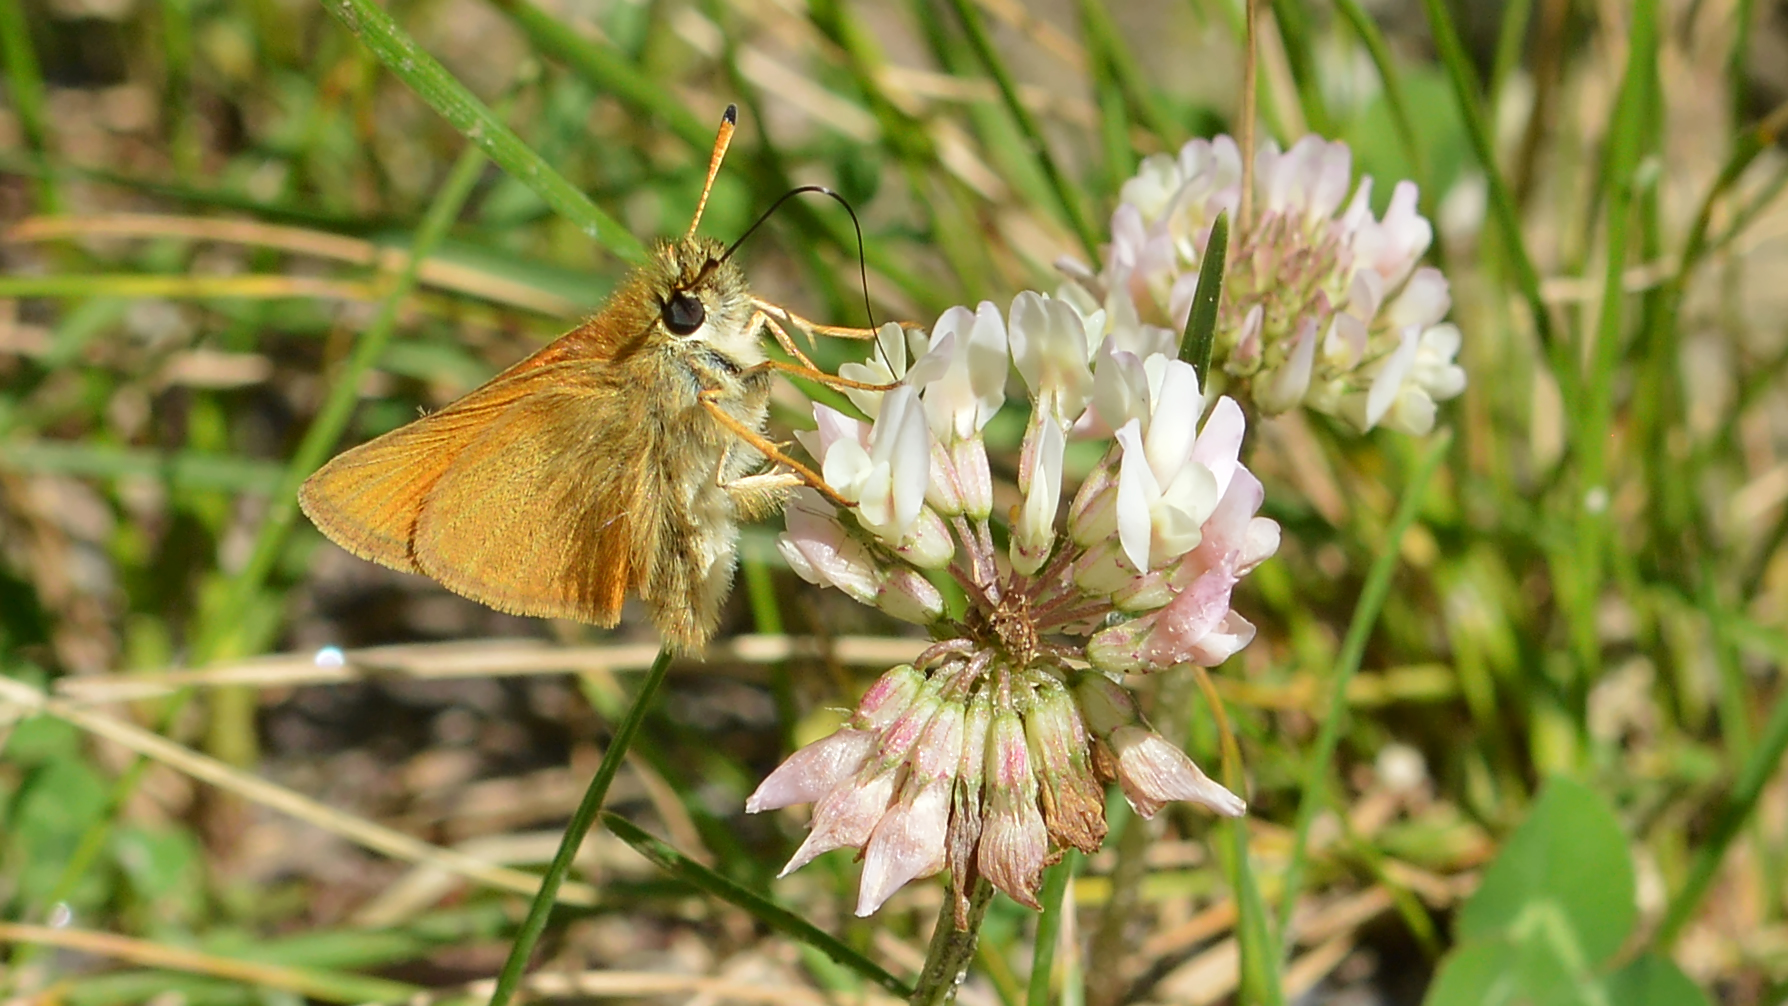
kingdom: Animalia
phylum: Arthropoda
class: Insecta
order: Lepidoptera
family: Hesperiidae
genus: Thymelicus
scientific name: Thymelicus lineola
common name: Essex skipper
